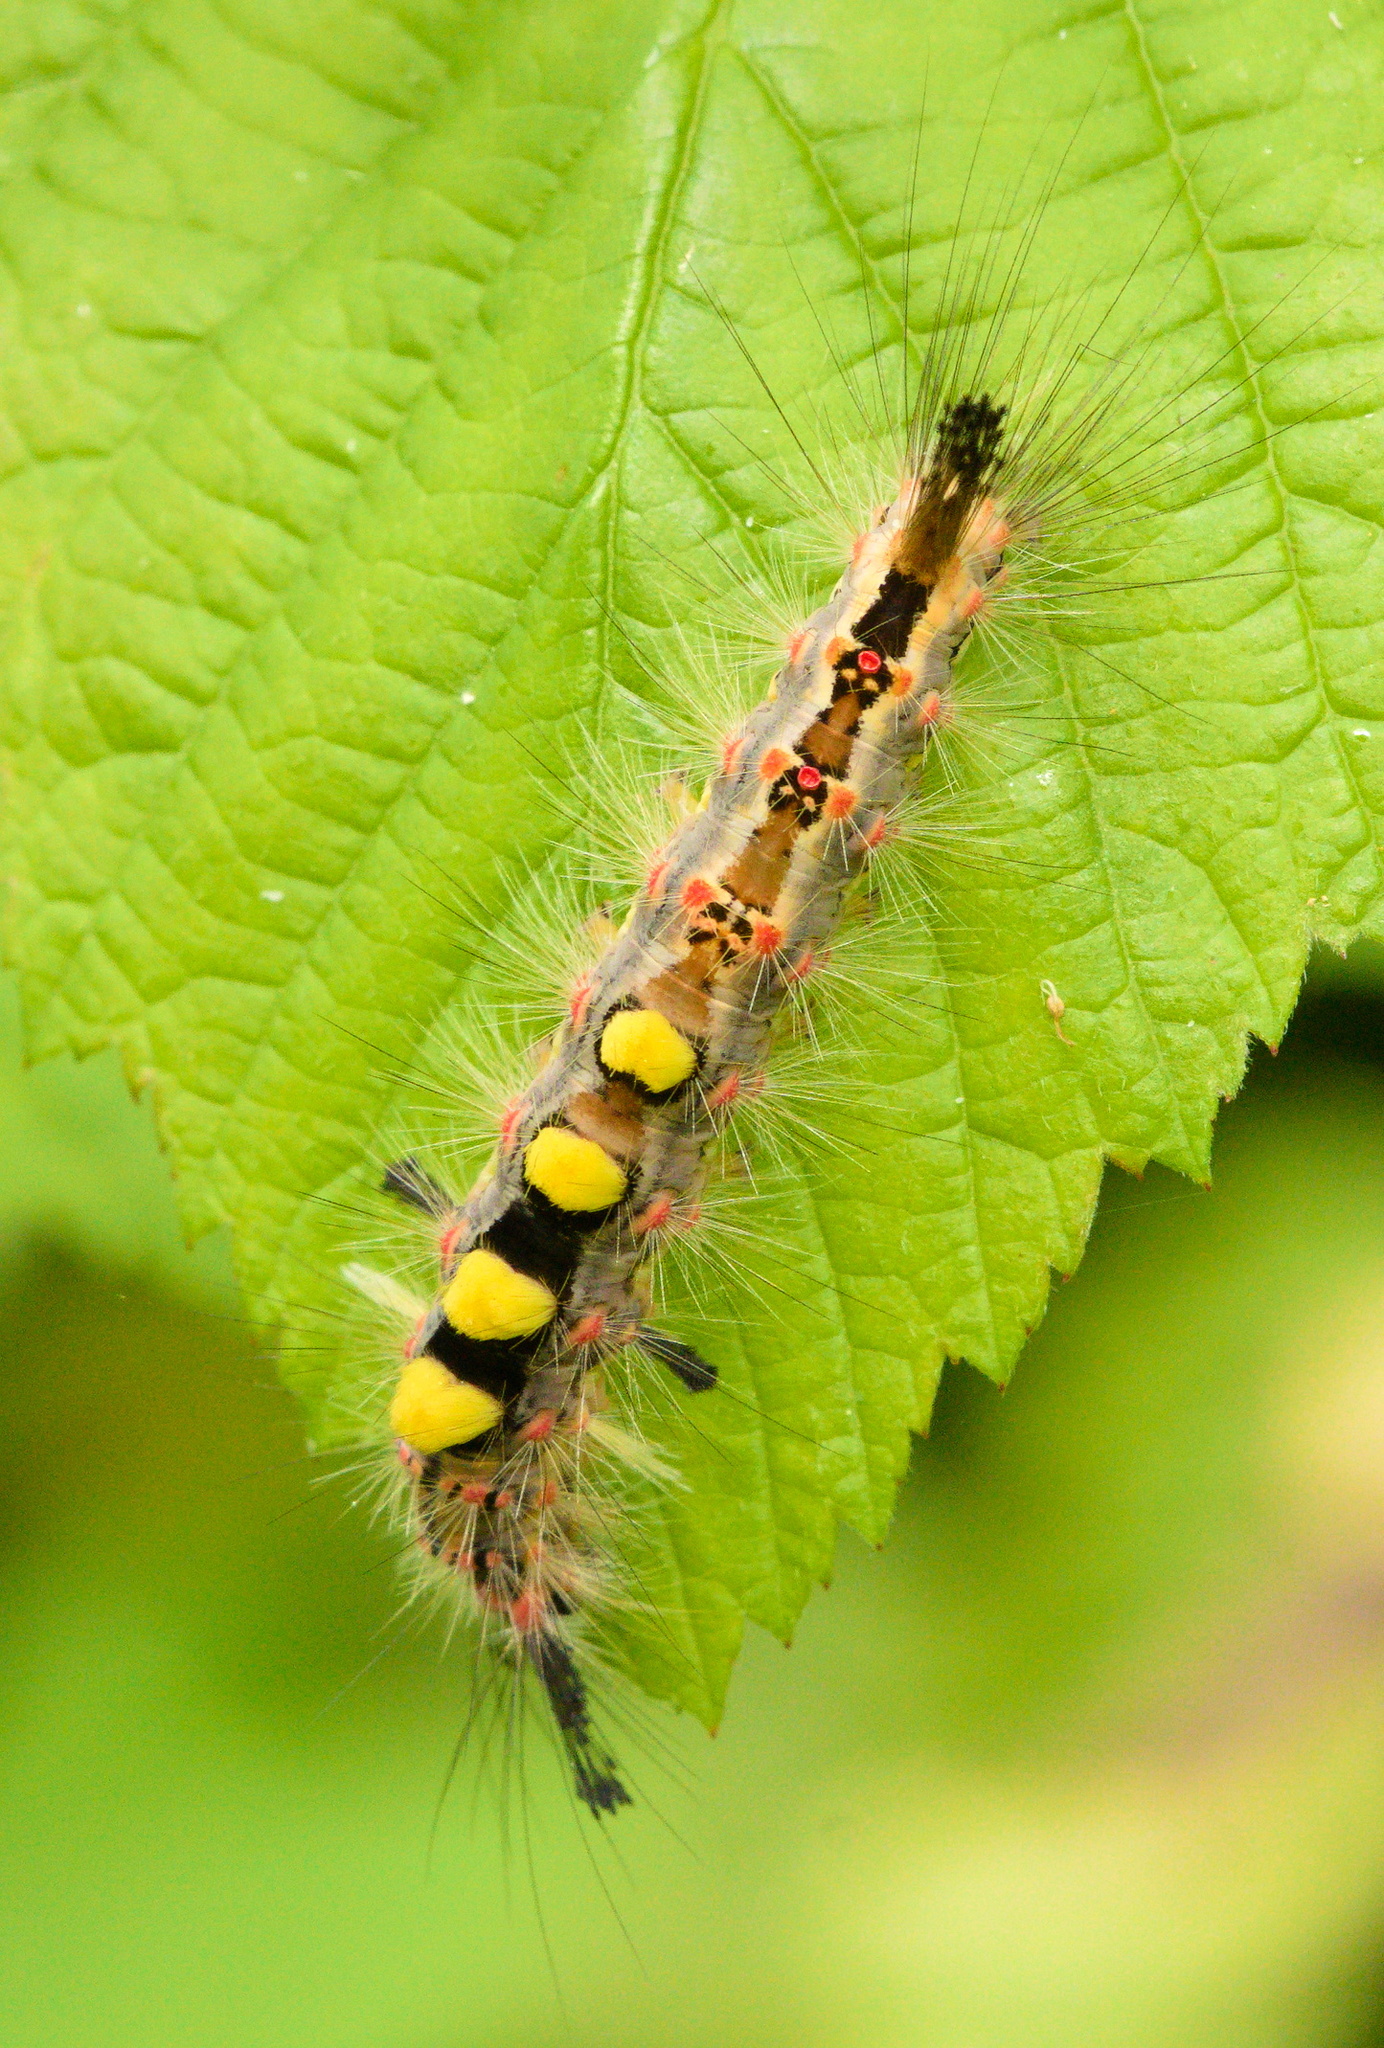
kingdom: Animalia
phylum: Arthropoda
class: Insecta
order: Lepidoptera
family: Erebidae
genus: Orgyia
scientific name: Orgyia antiqua
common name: Vapourer
